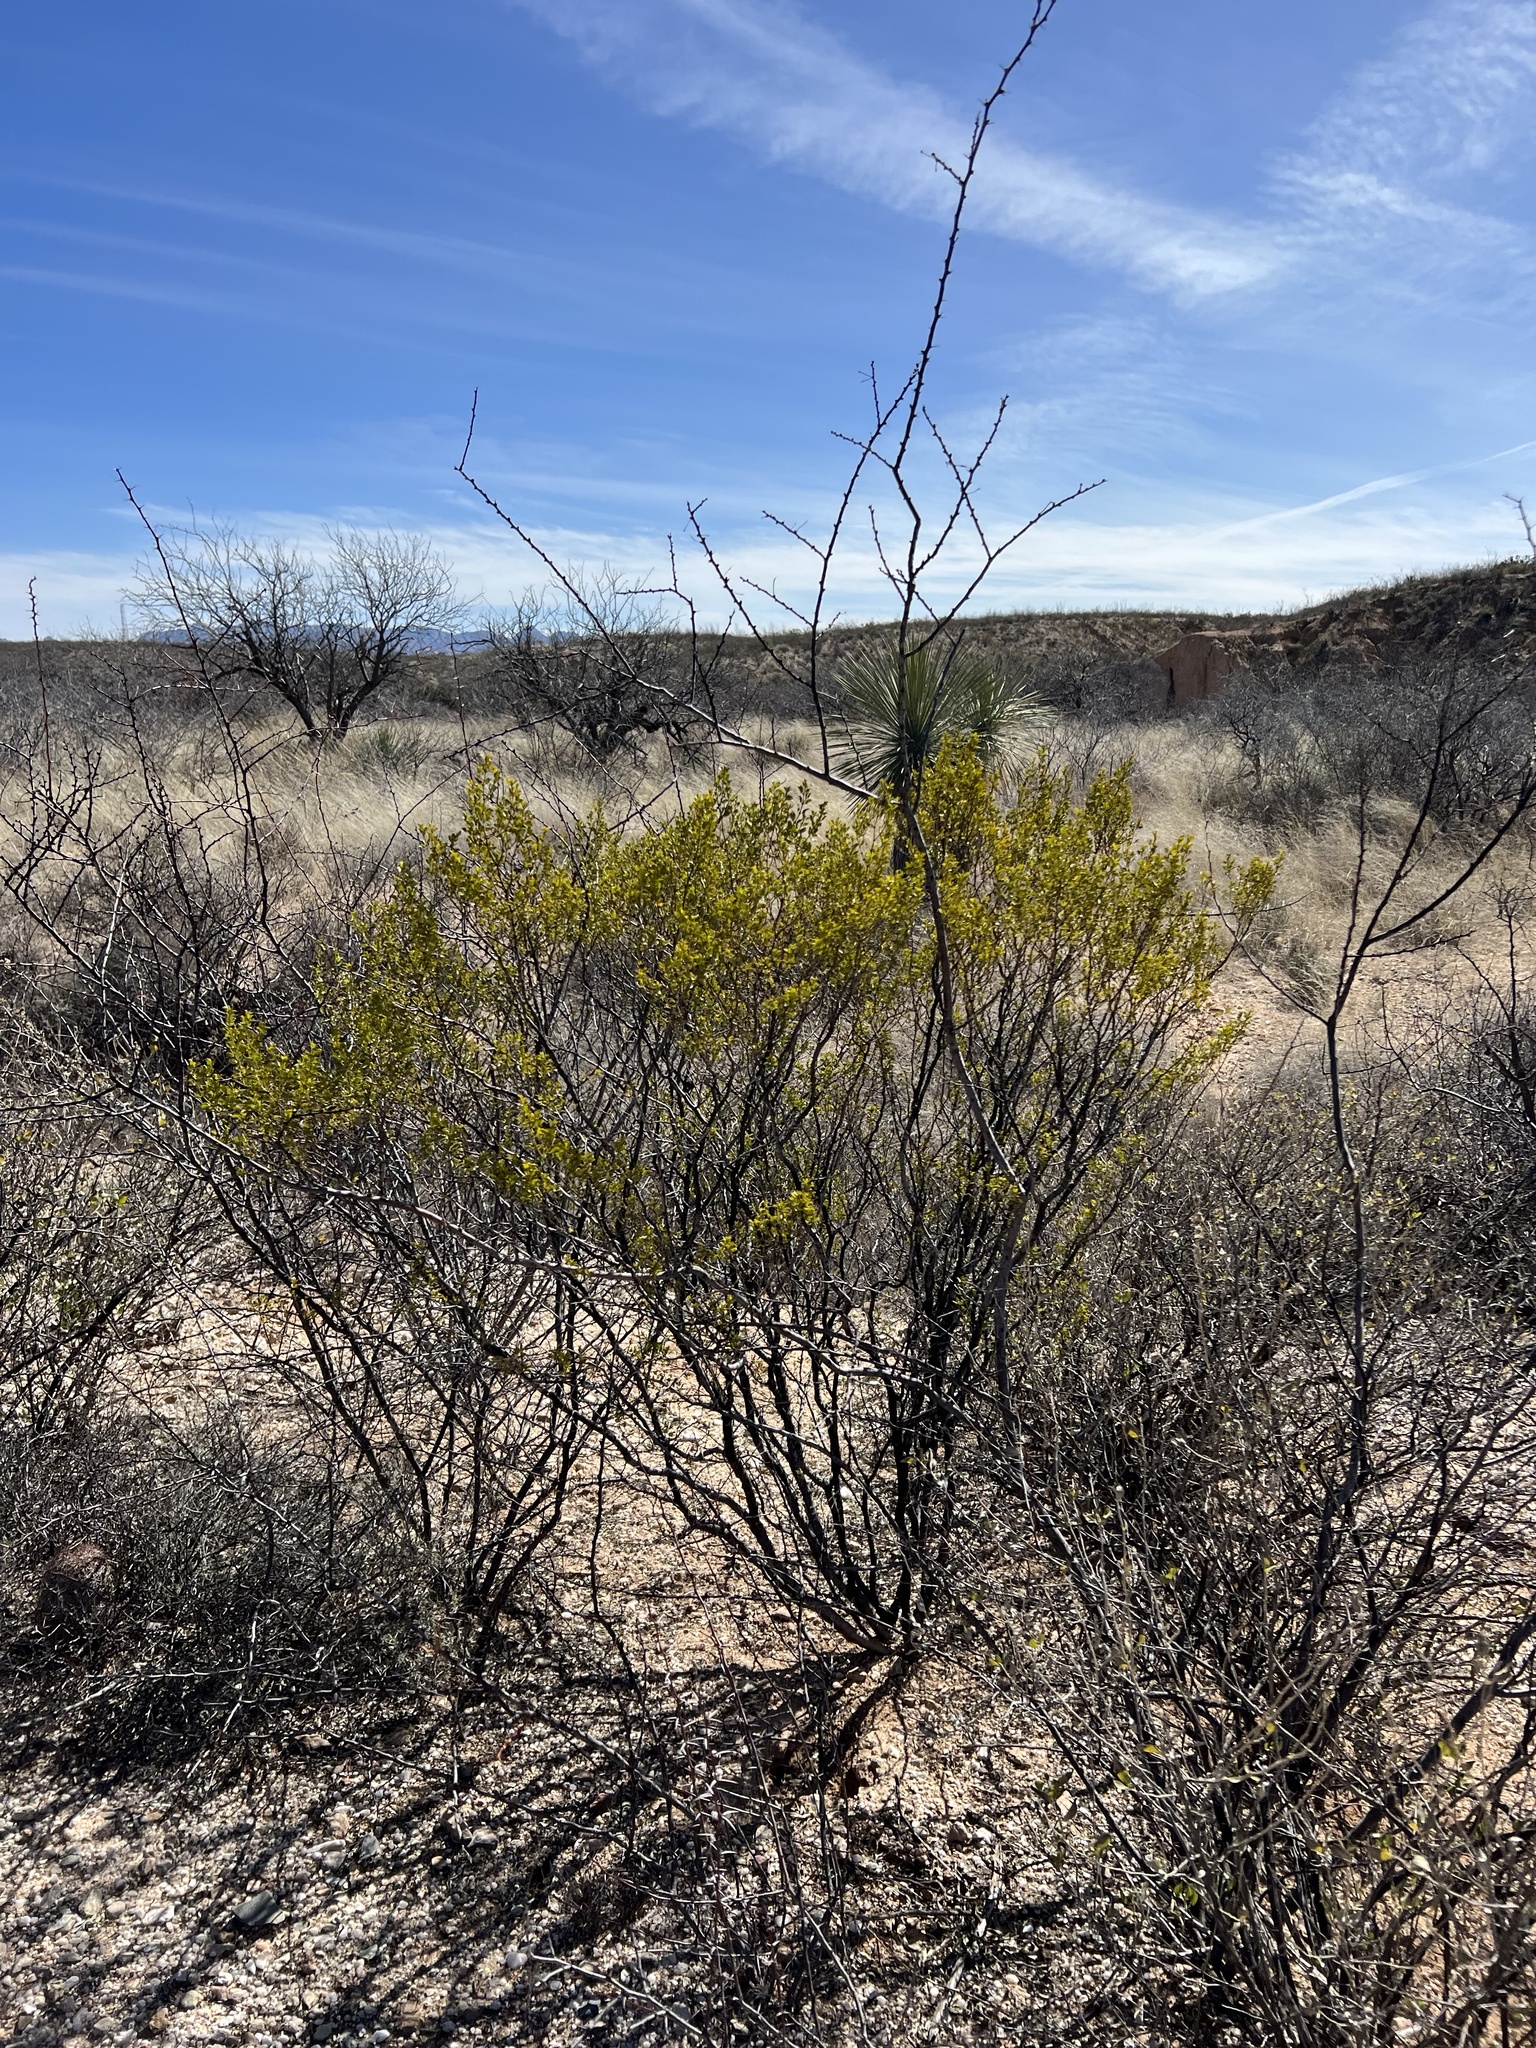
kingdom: Plantae
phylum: Tracheophyta
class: Magnoliopsida
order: Zygophyllales
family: Zygophyllaceae
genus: Larrea
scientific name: Larrea tridentata
